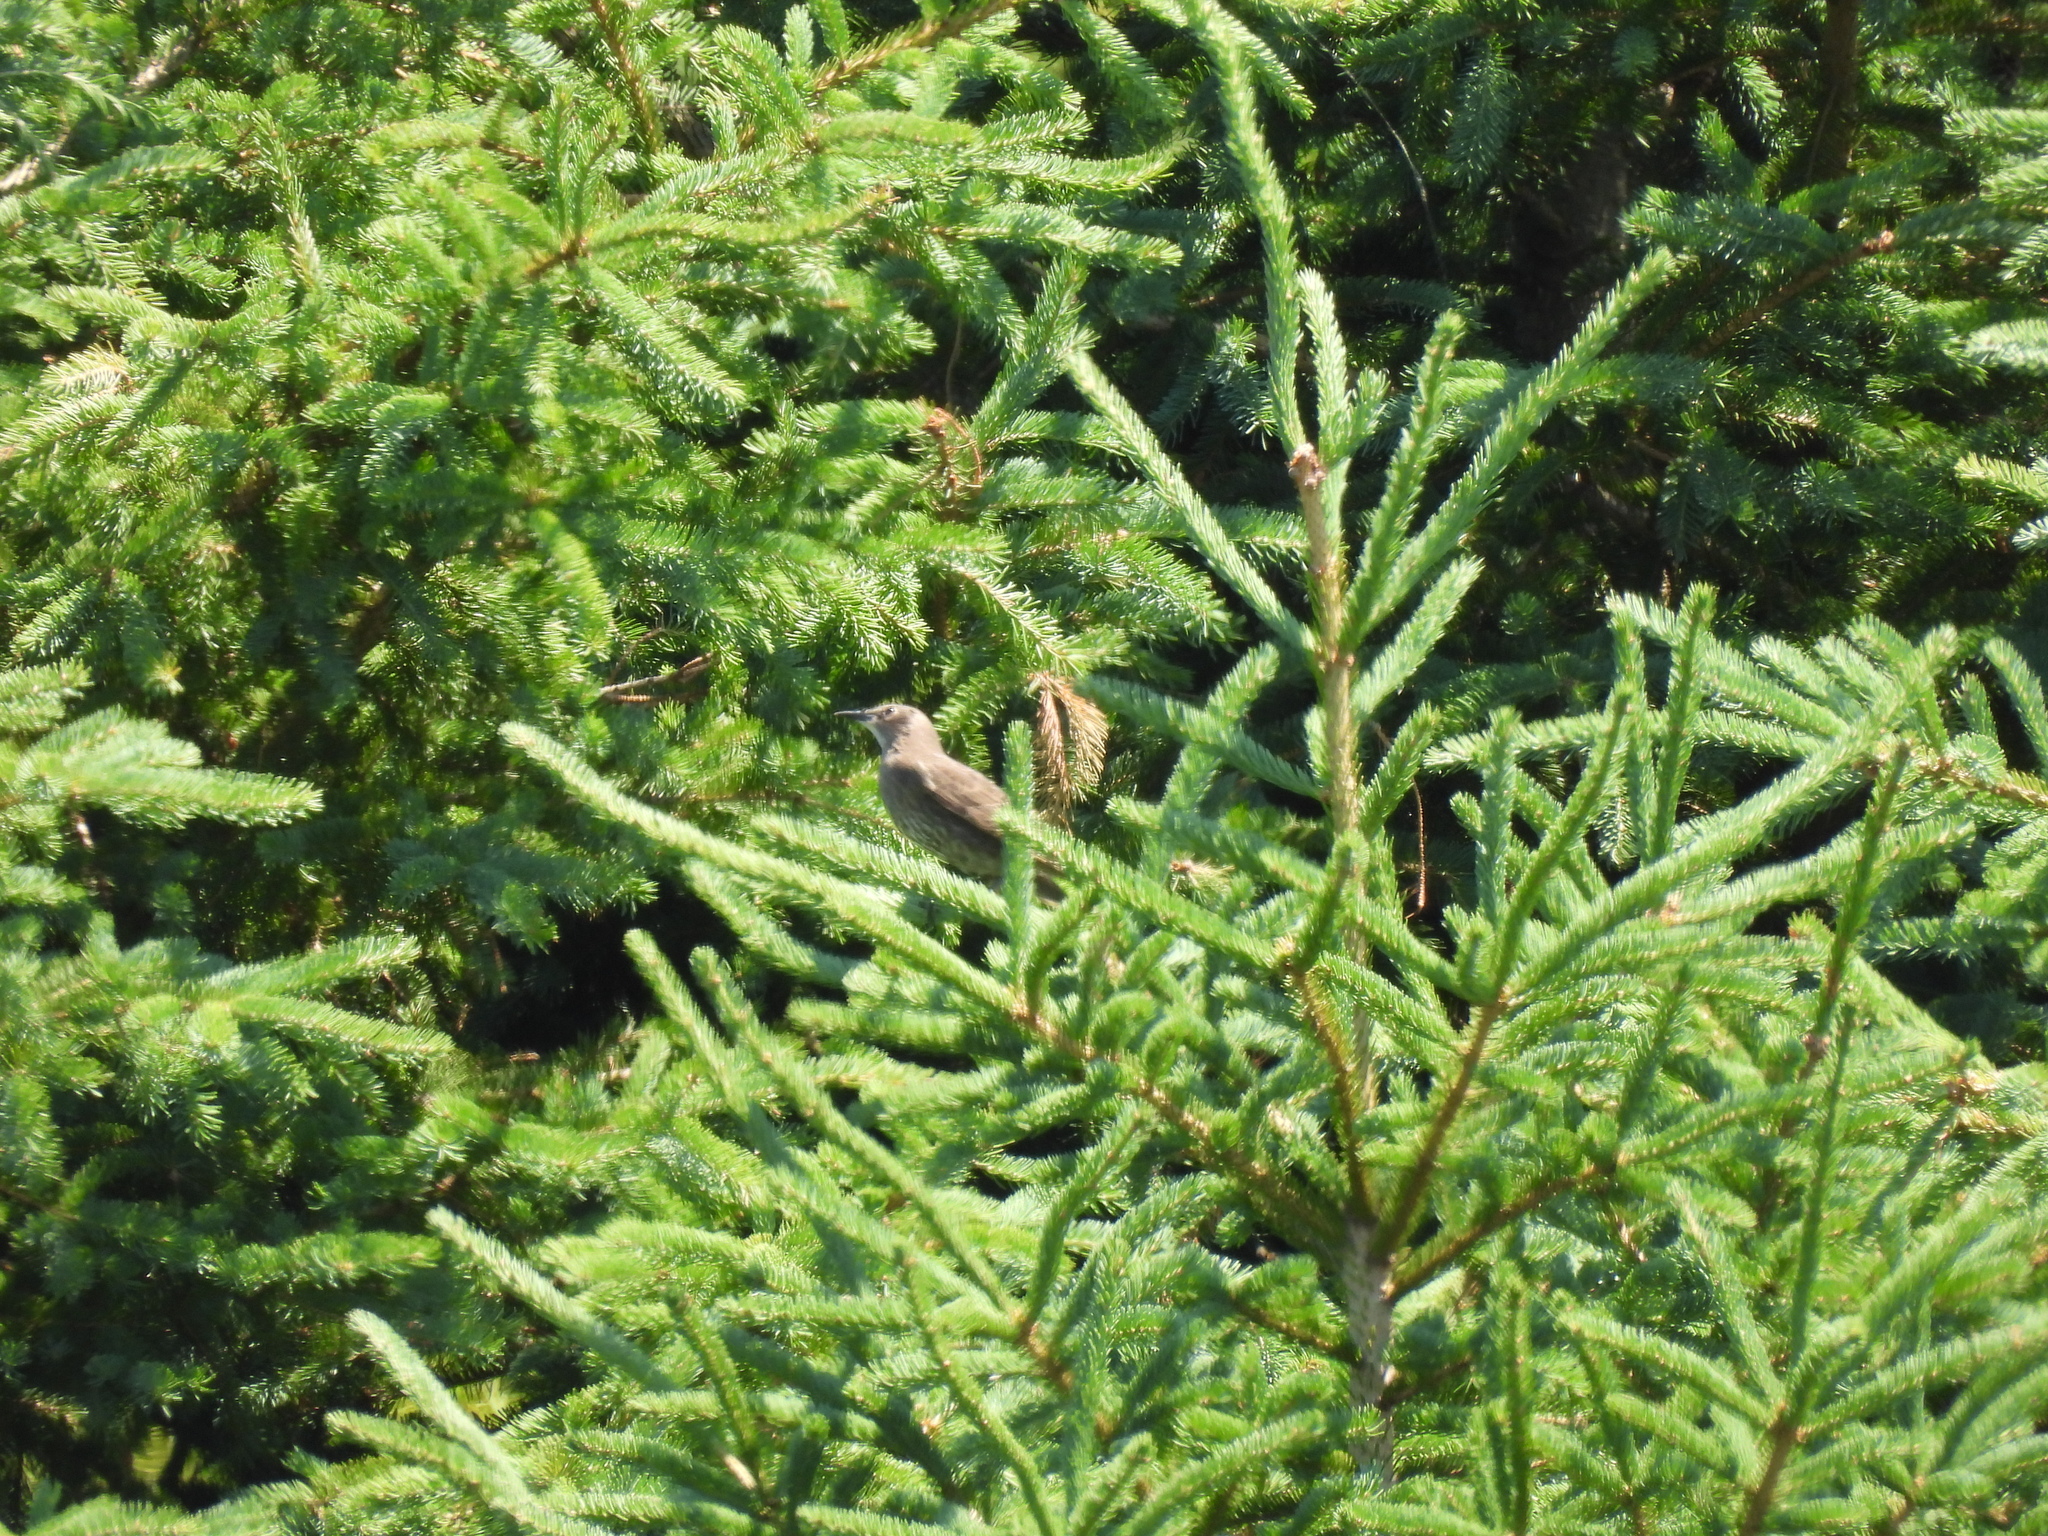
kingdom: Animalia
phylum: Chordata
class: Aves
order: Passeriformes
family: Sturnidae
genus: Sturnus
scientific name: Sturnus vulgaris
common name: Common starling
